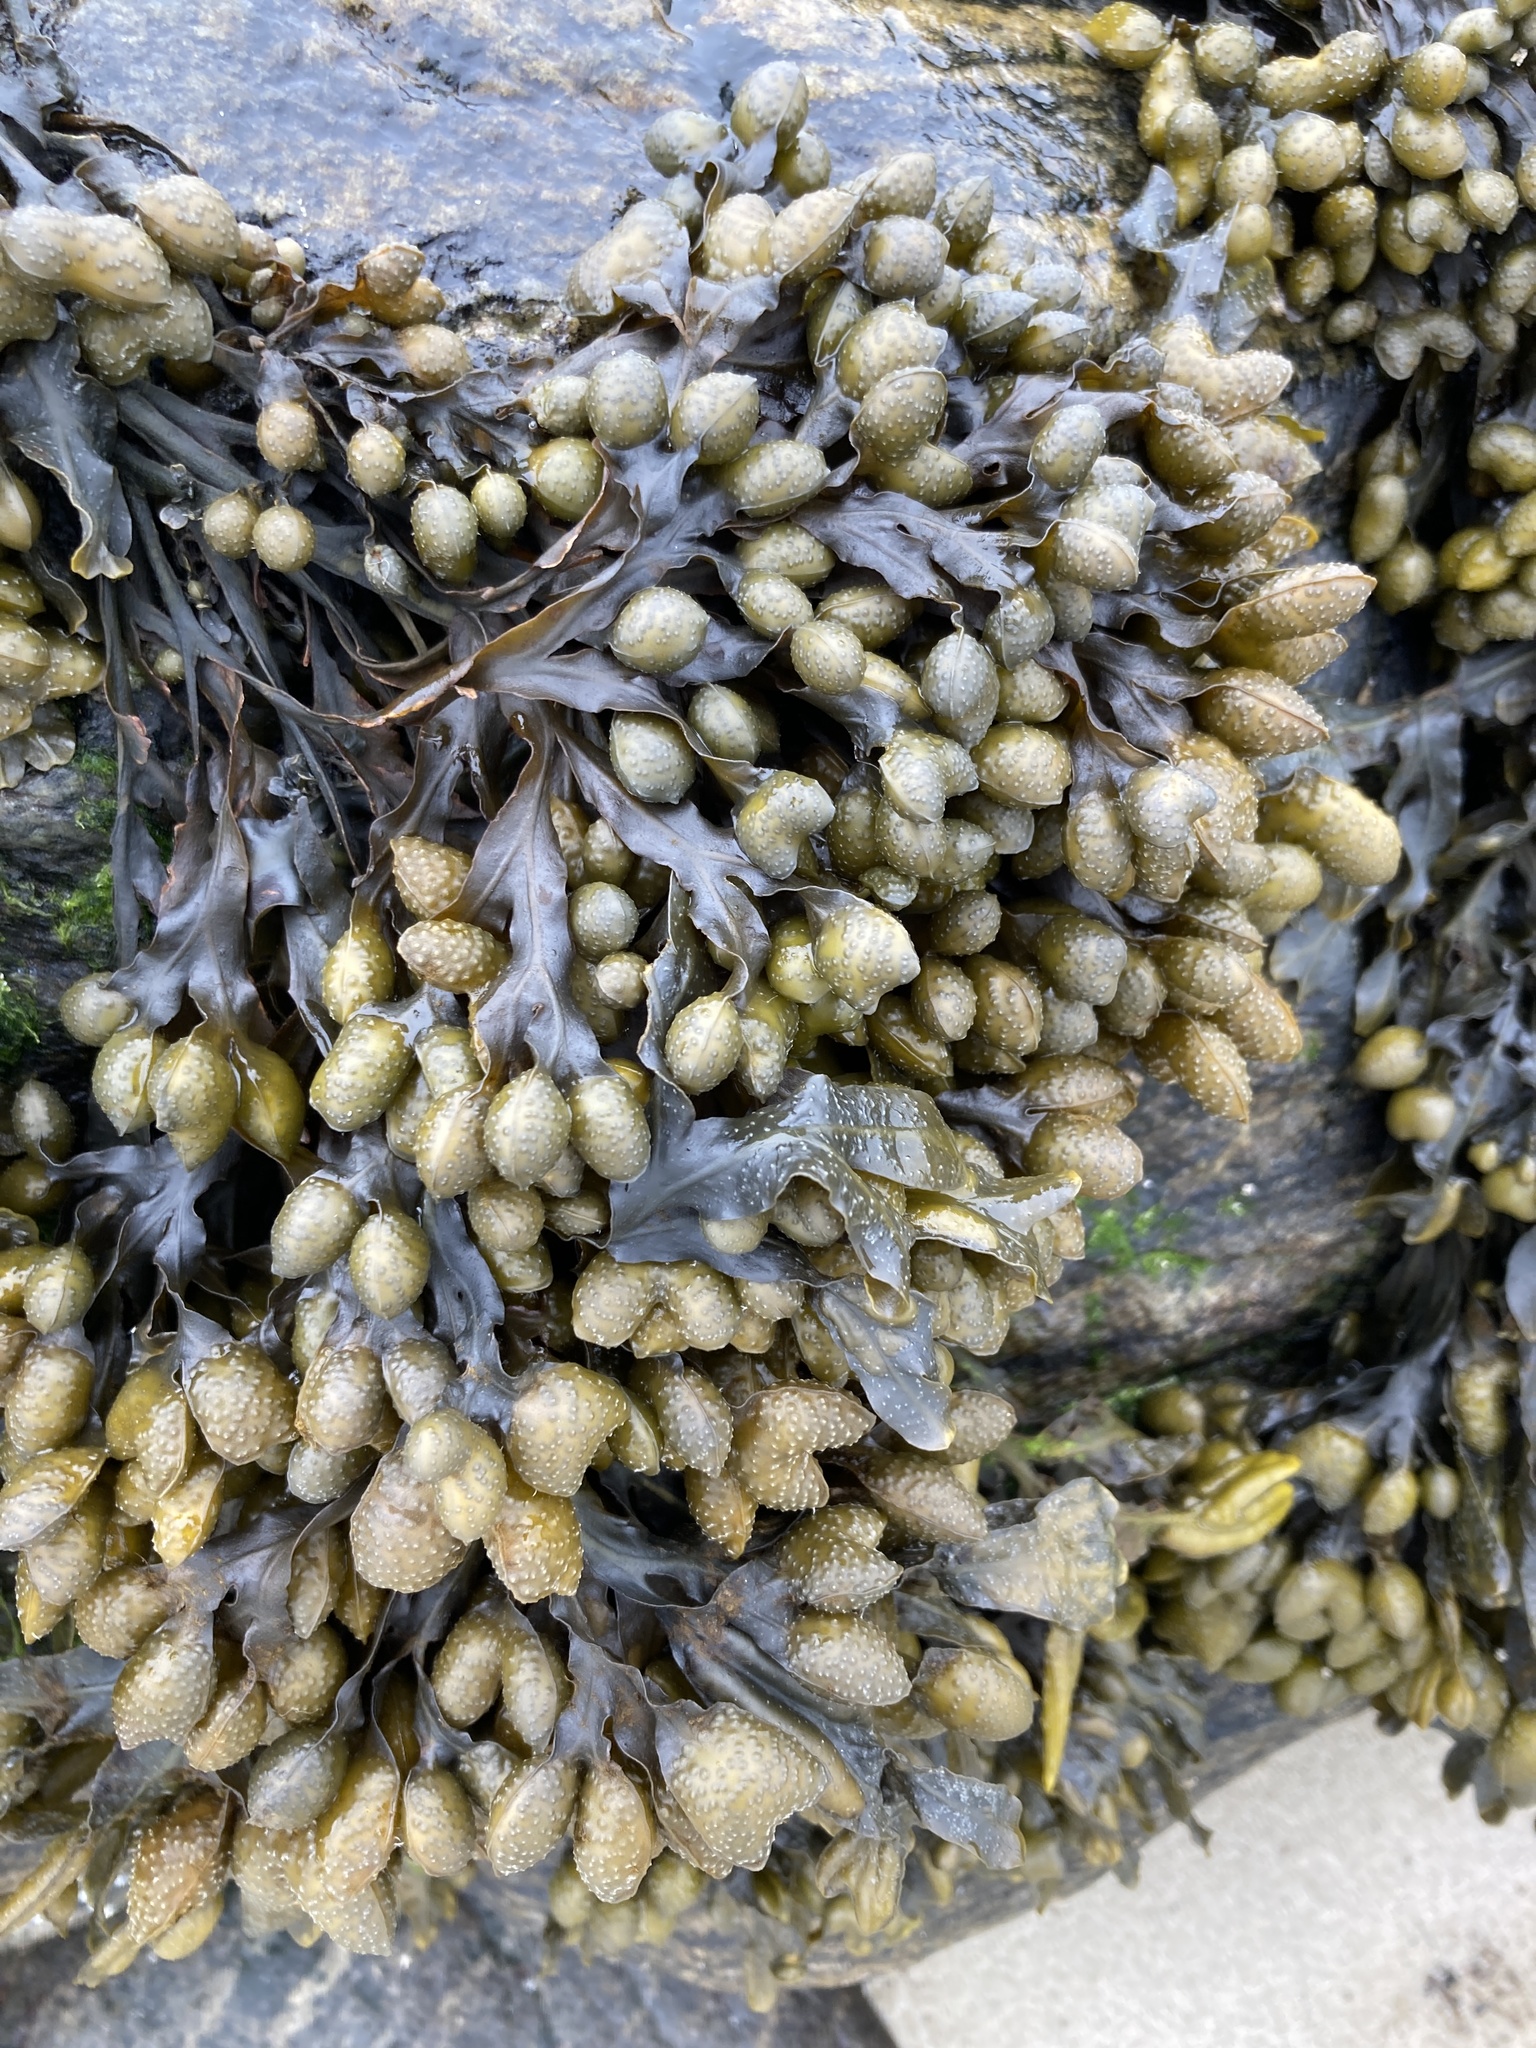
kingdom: Chromista
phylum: Ochrophyta
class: Phaeophyceae
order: Fucales
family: Fucaceae
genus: Fucus
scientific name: Fucus spiralis
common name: Spiral wrack
